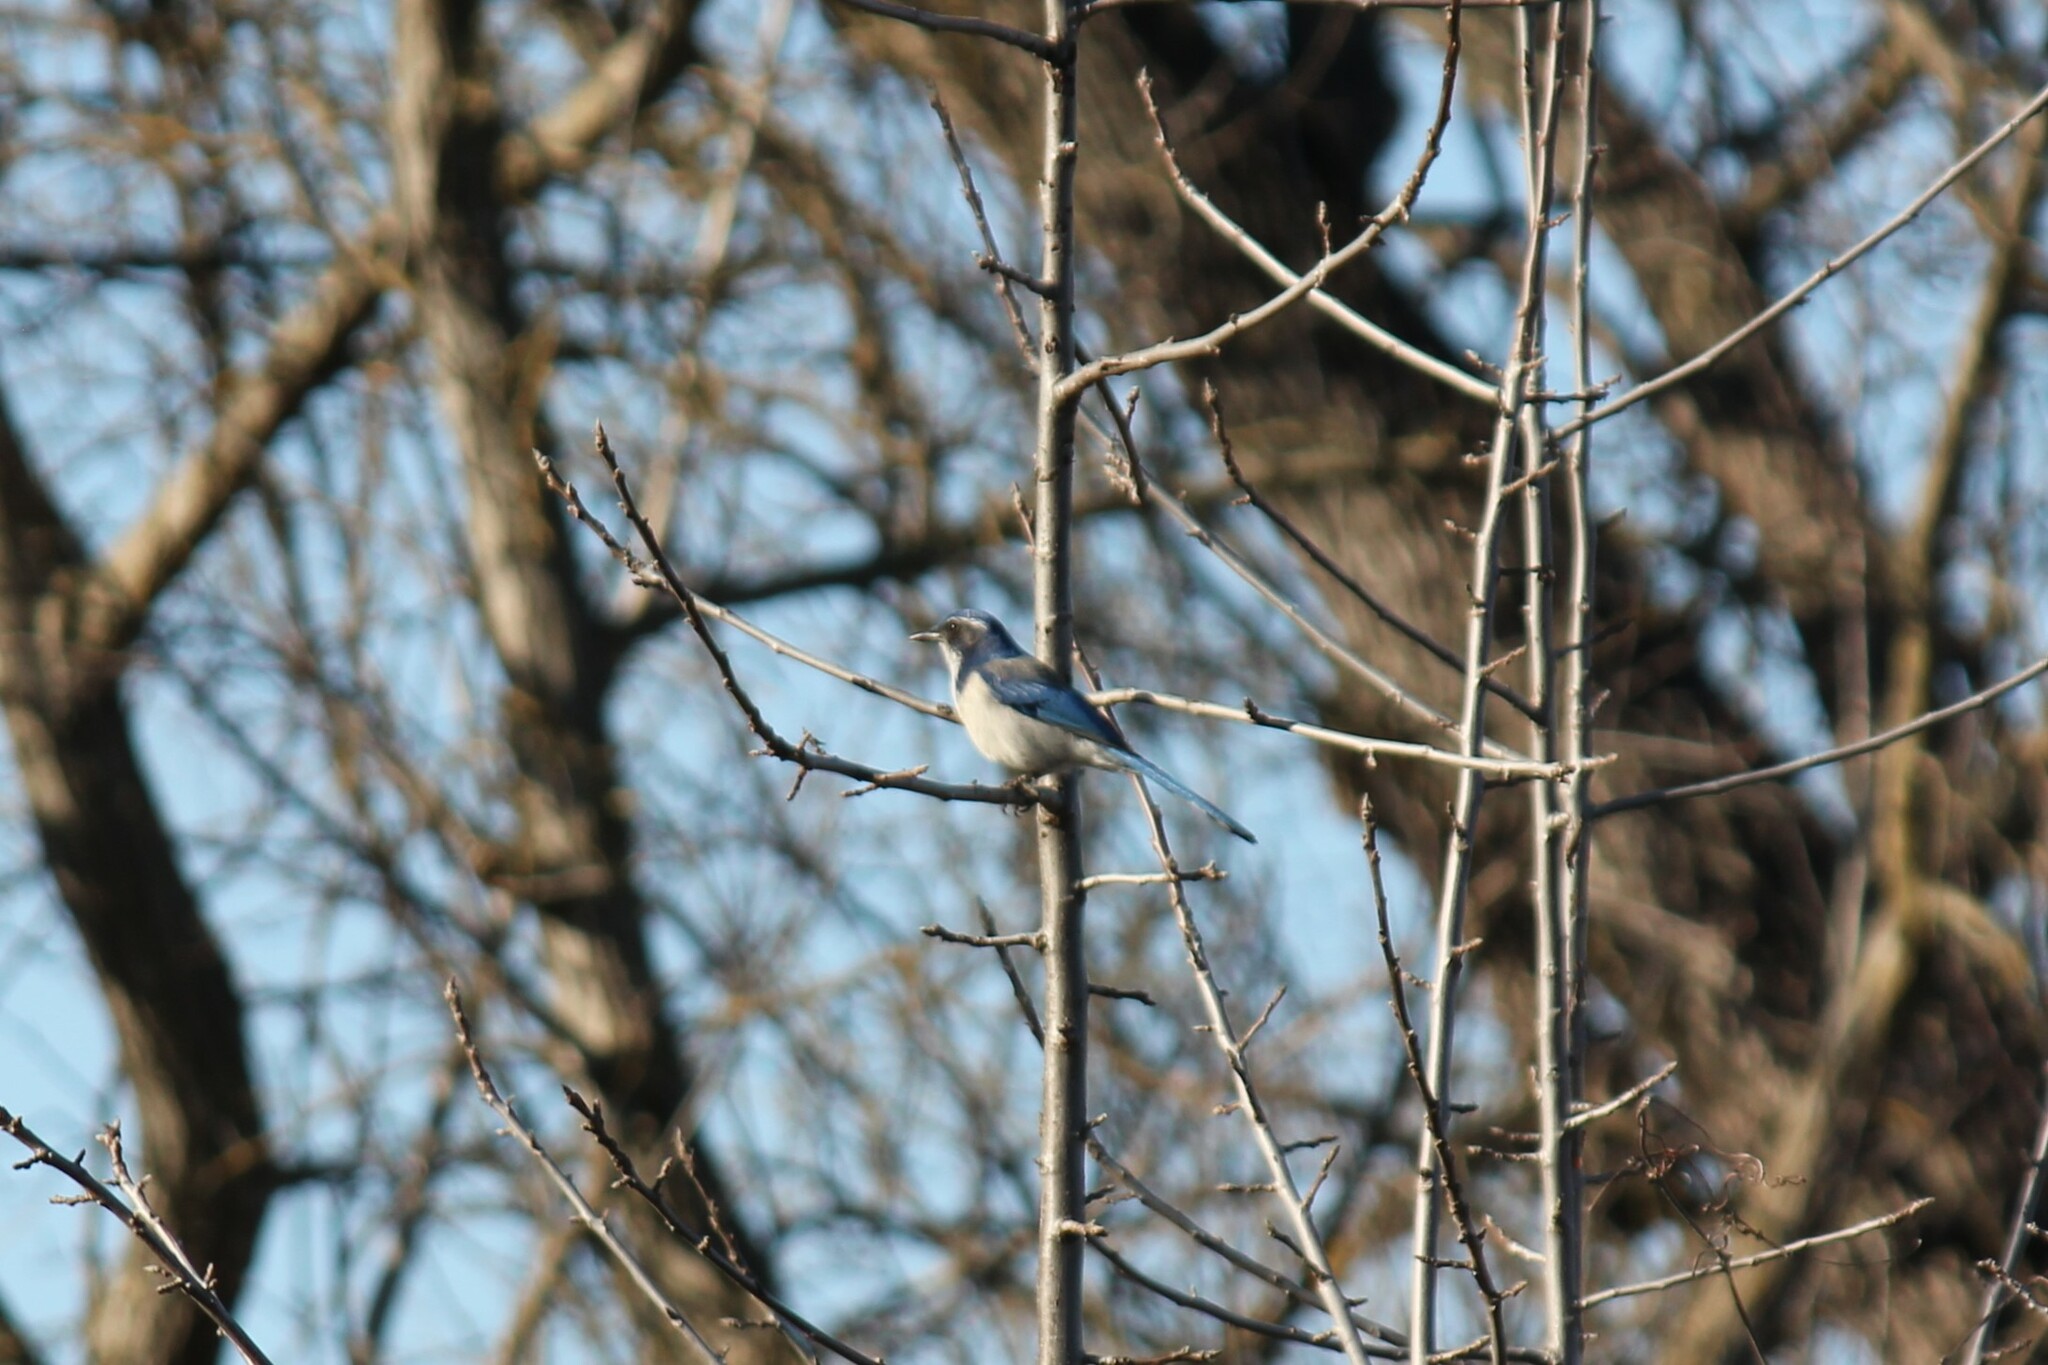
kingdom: Animalia
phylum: Chordata
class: Aves
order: Passeriformes
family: Corvidae
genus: Aphelocoma
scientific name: Aphelocoma californica
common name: California scrub-jay
